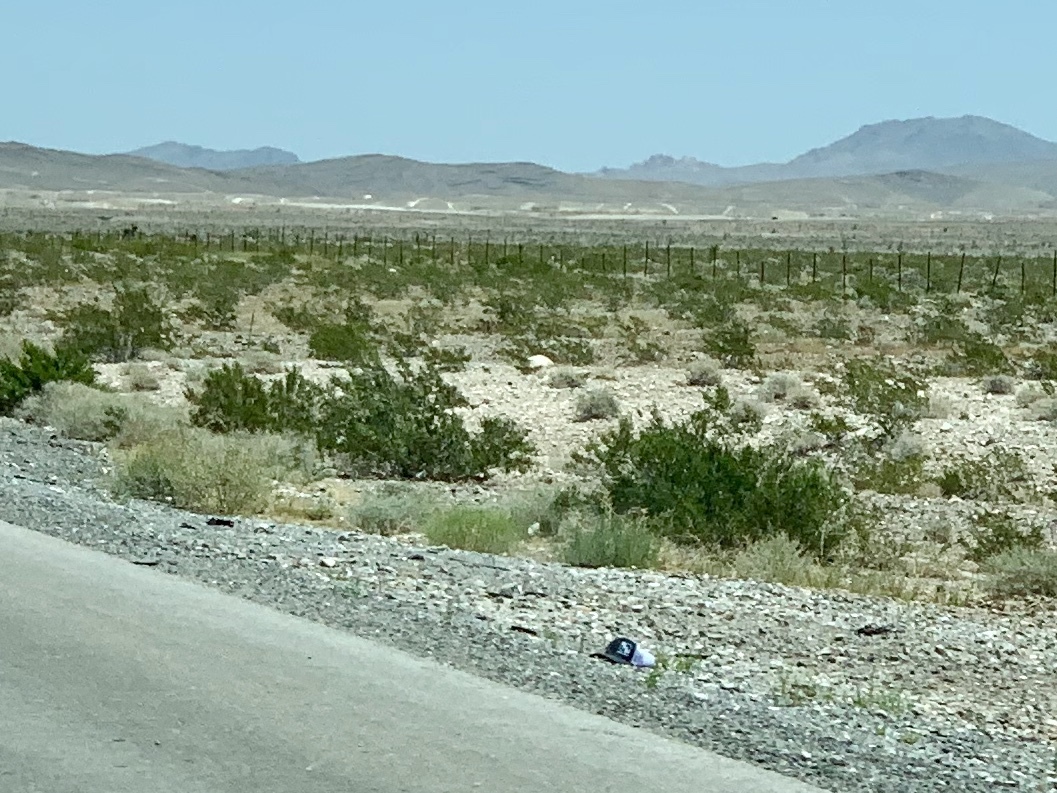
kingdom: Plantae
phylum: Tracheophyta
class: Magnoliopsida
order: Zygophyllales
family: Zygophyllaceae
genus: Larrea
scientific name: Larrea tridentata
